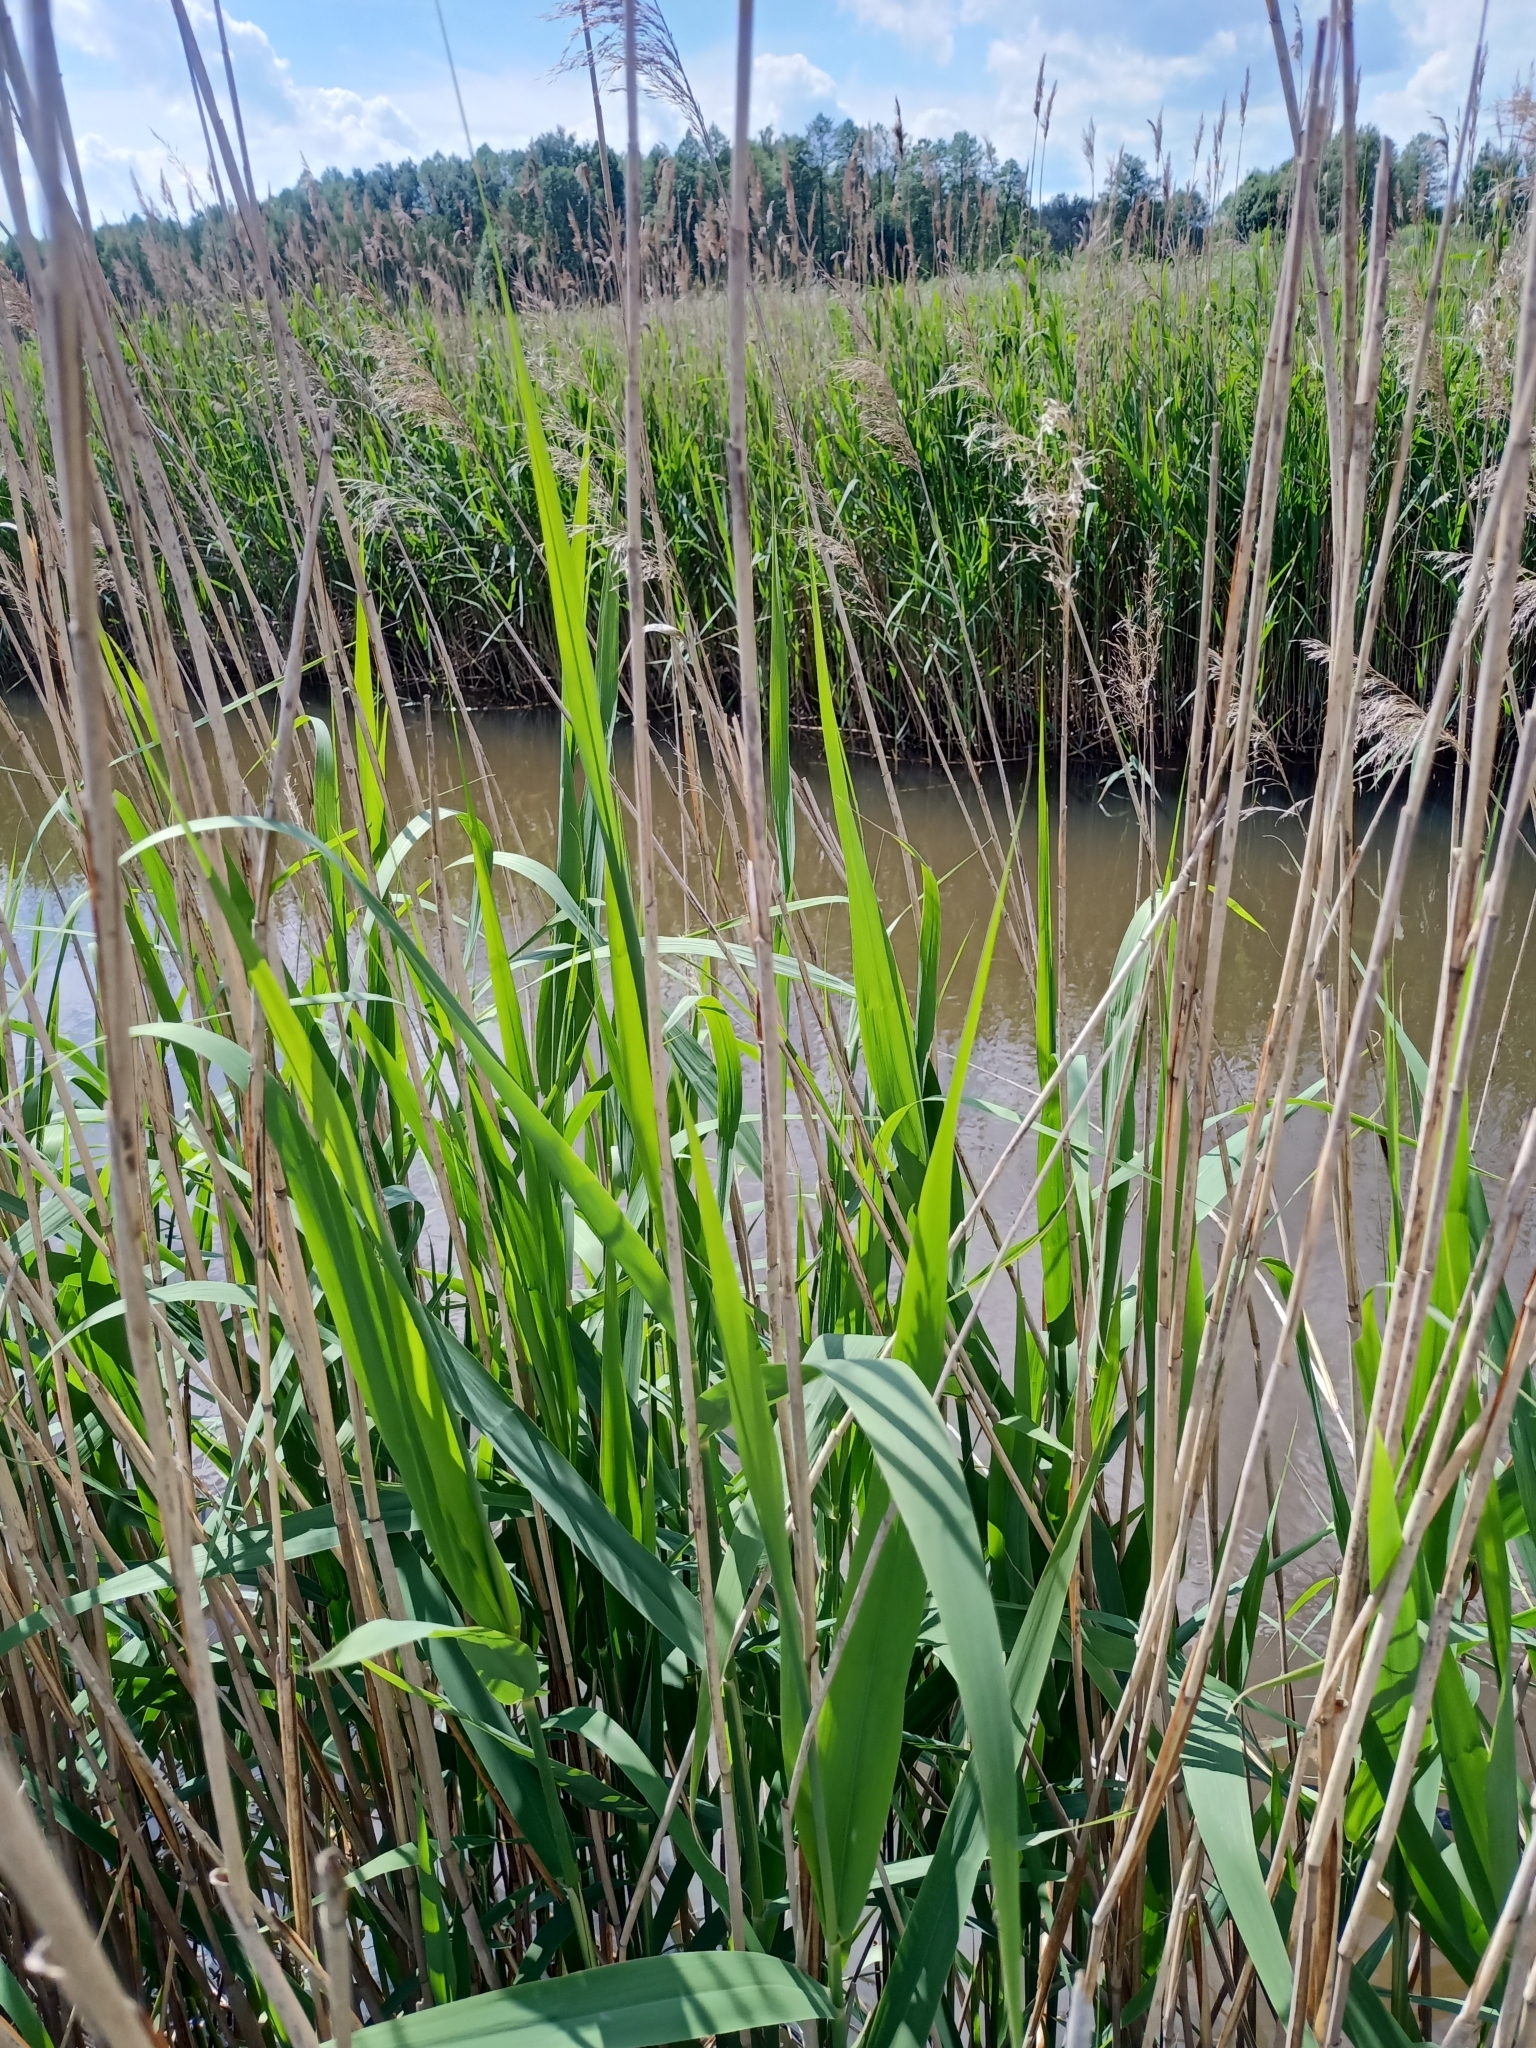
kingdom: Plantae
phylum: Tracheophyta
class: Liliopsida
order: Poales
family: Poaceae
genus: Phragmites
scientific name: Phragmites australis
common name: Common reed
